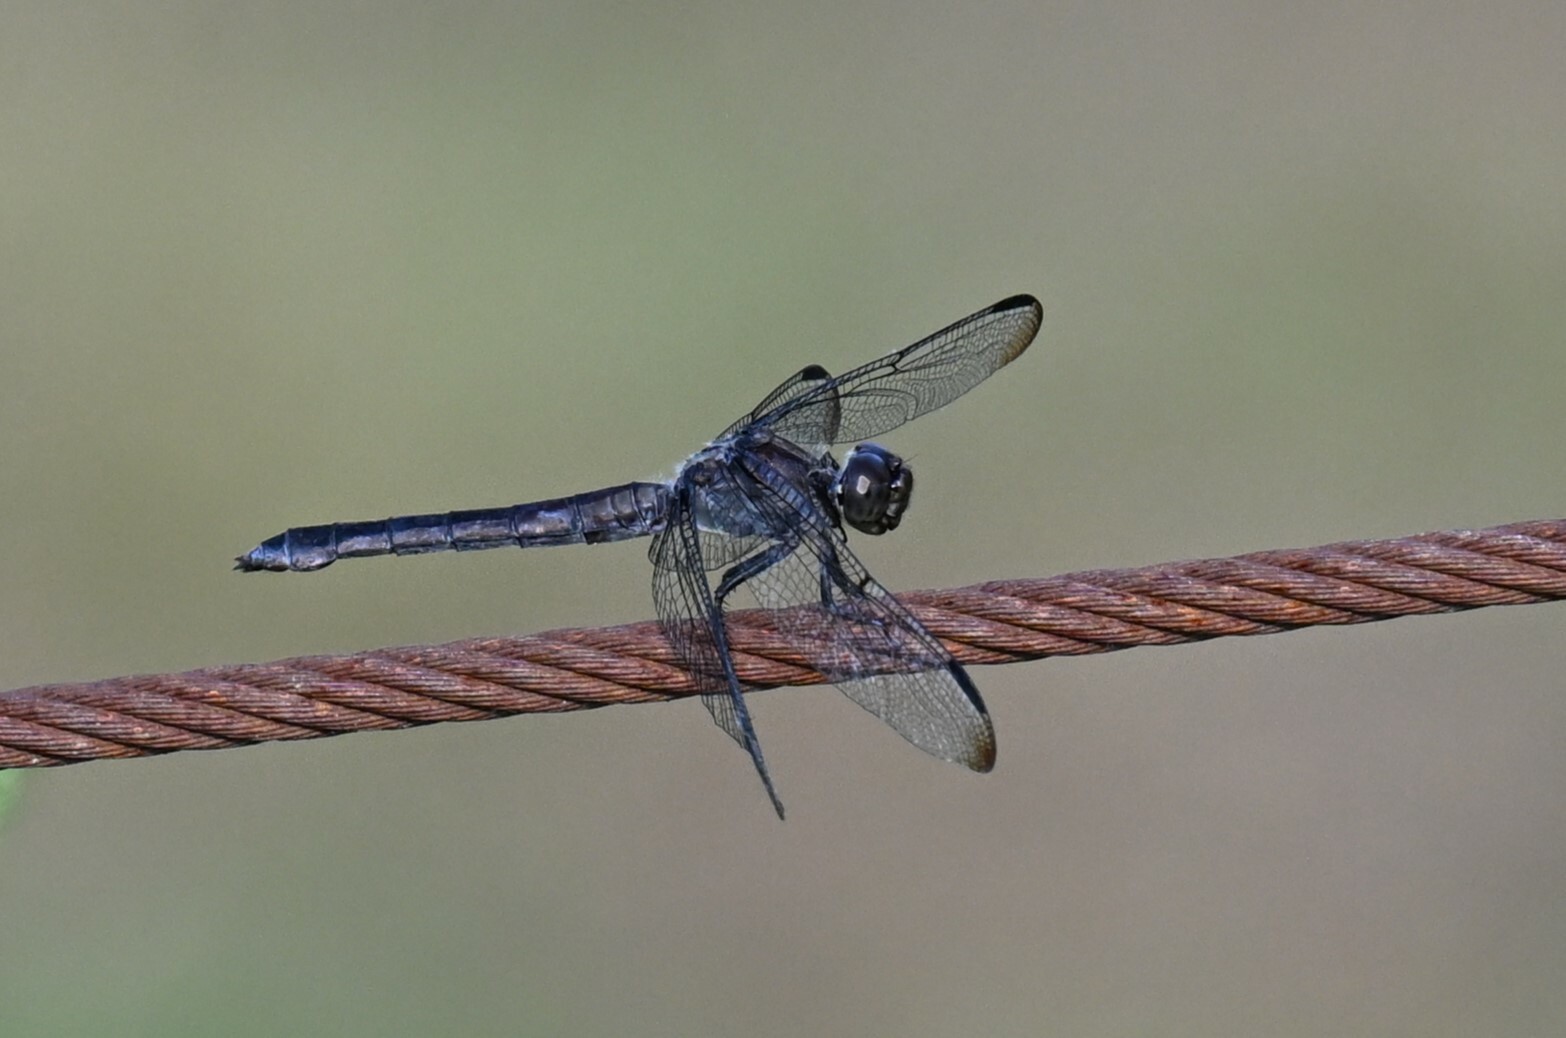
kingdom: Animalia
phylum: Arthropoda
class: Insecta
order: Odonata
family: Libellulidae
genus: Libellula
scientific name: Libellula incesta
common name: Slaty skimmer
